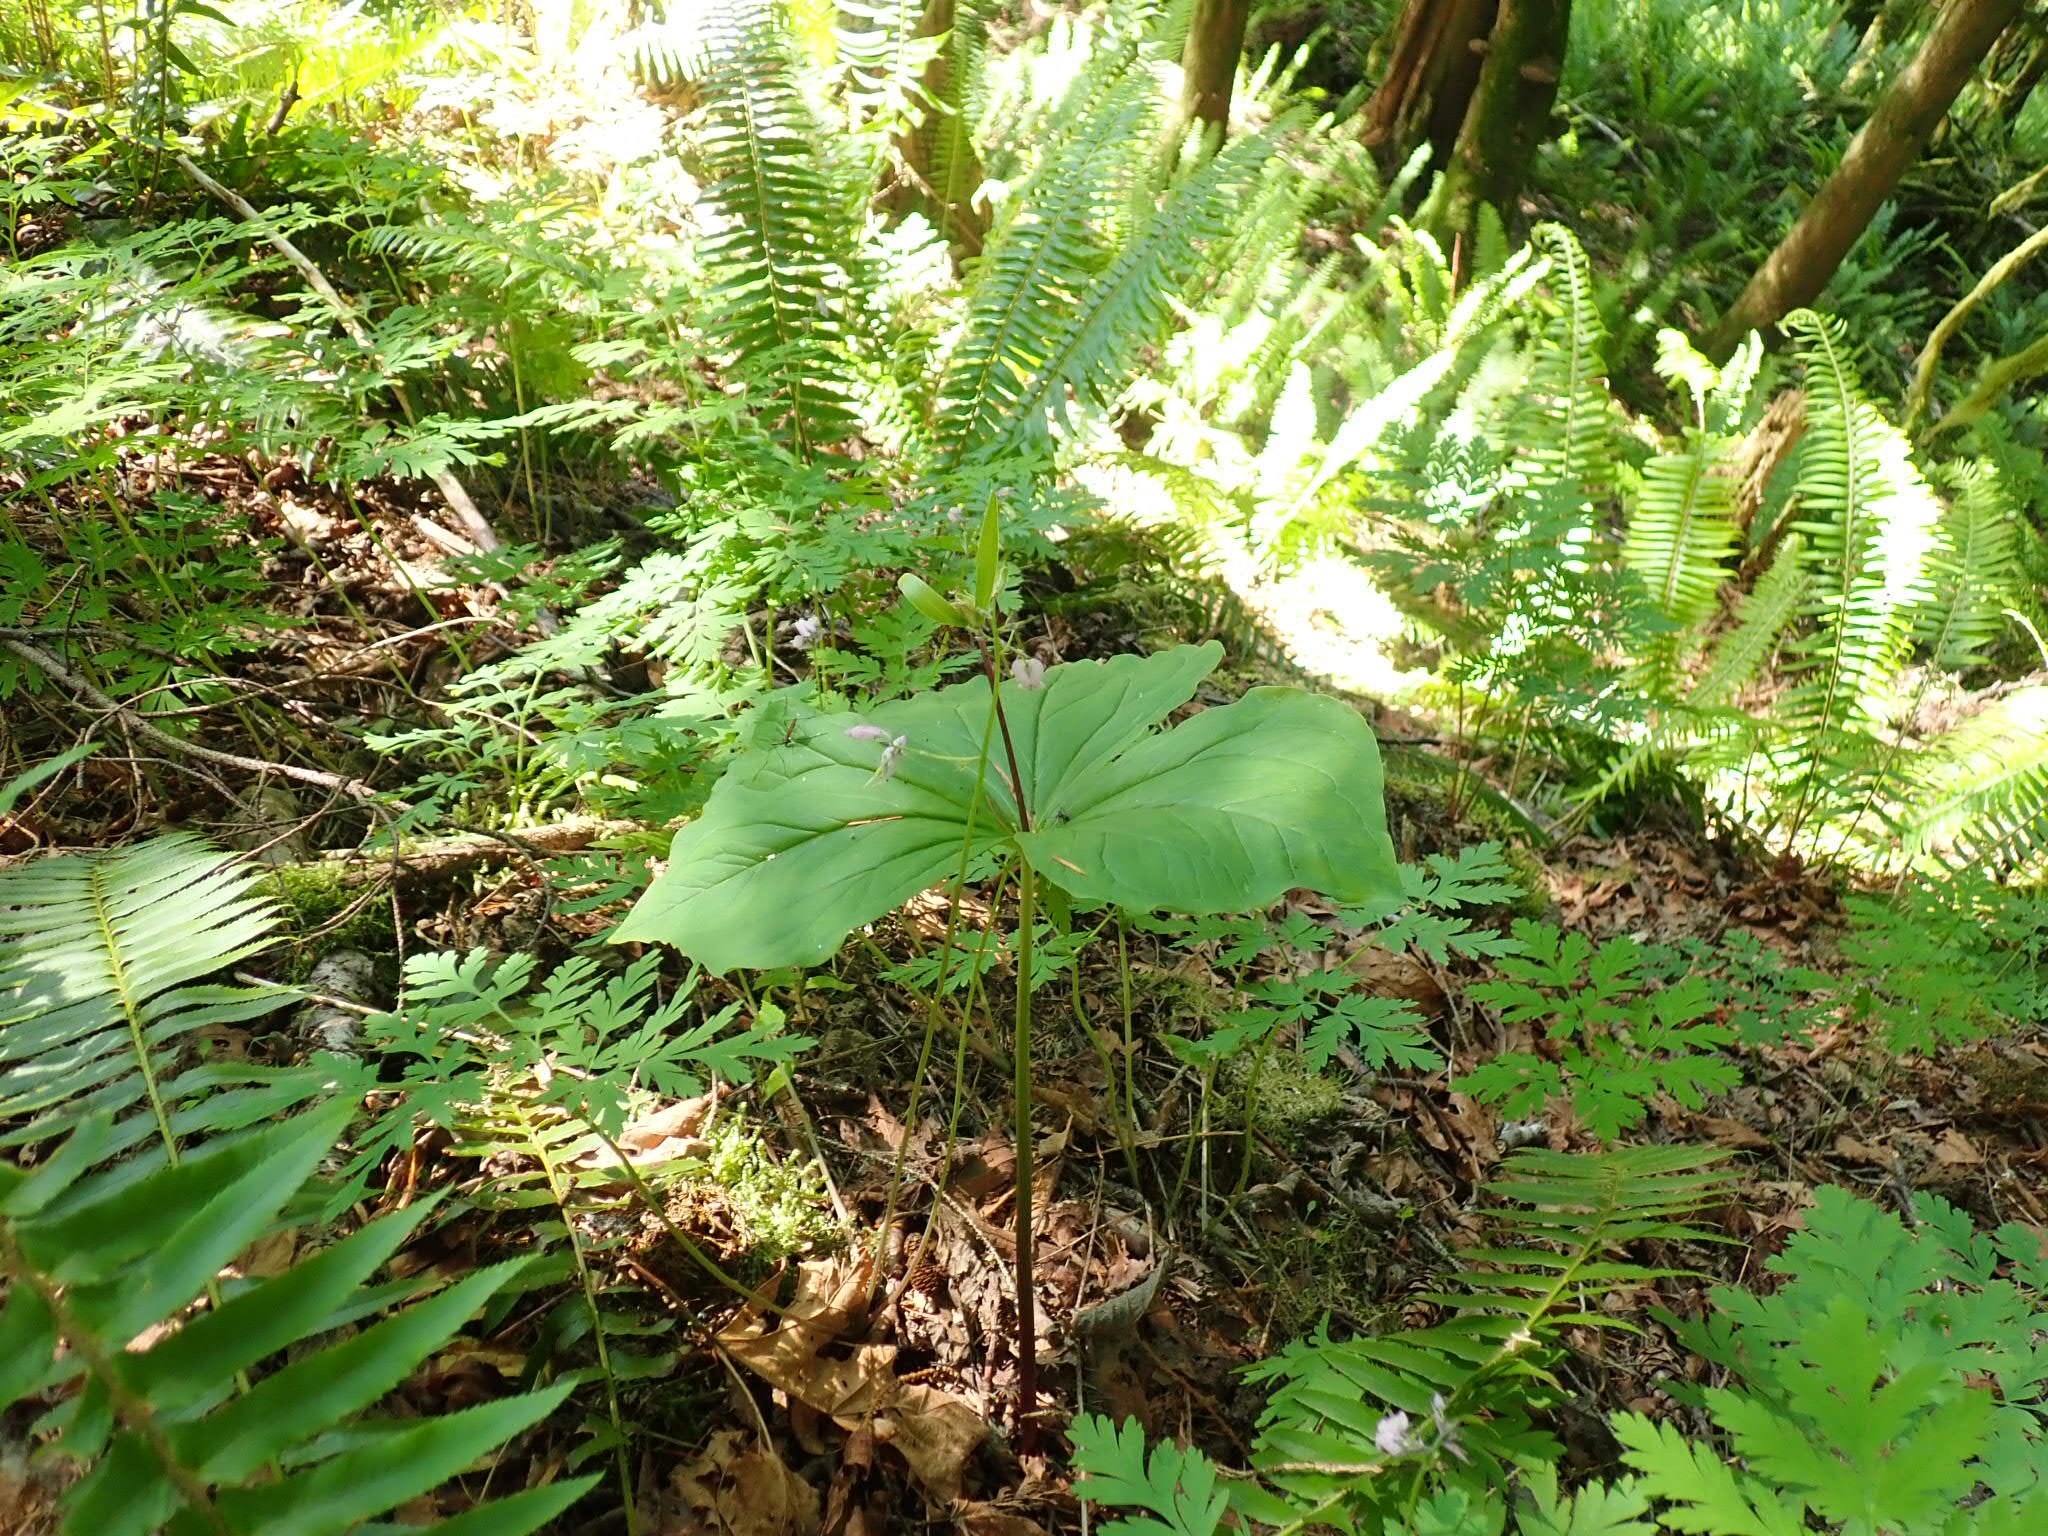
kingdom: Plantae
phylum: Tracheophyta
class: Liliopsida
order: Liliales
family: Melanthiaceae
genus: Trillium
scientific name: Trillium ovatum
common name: Pacific trillium
